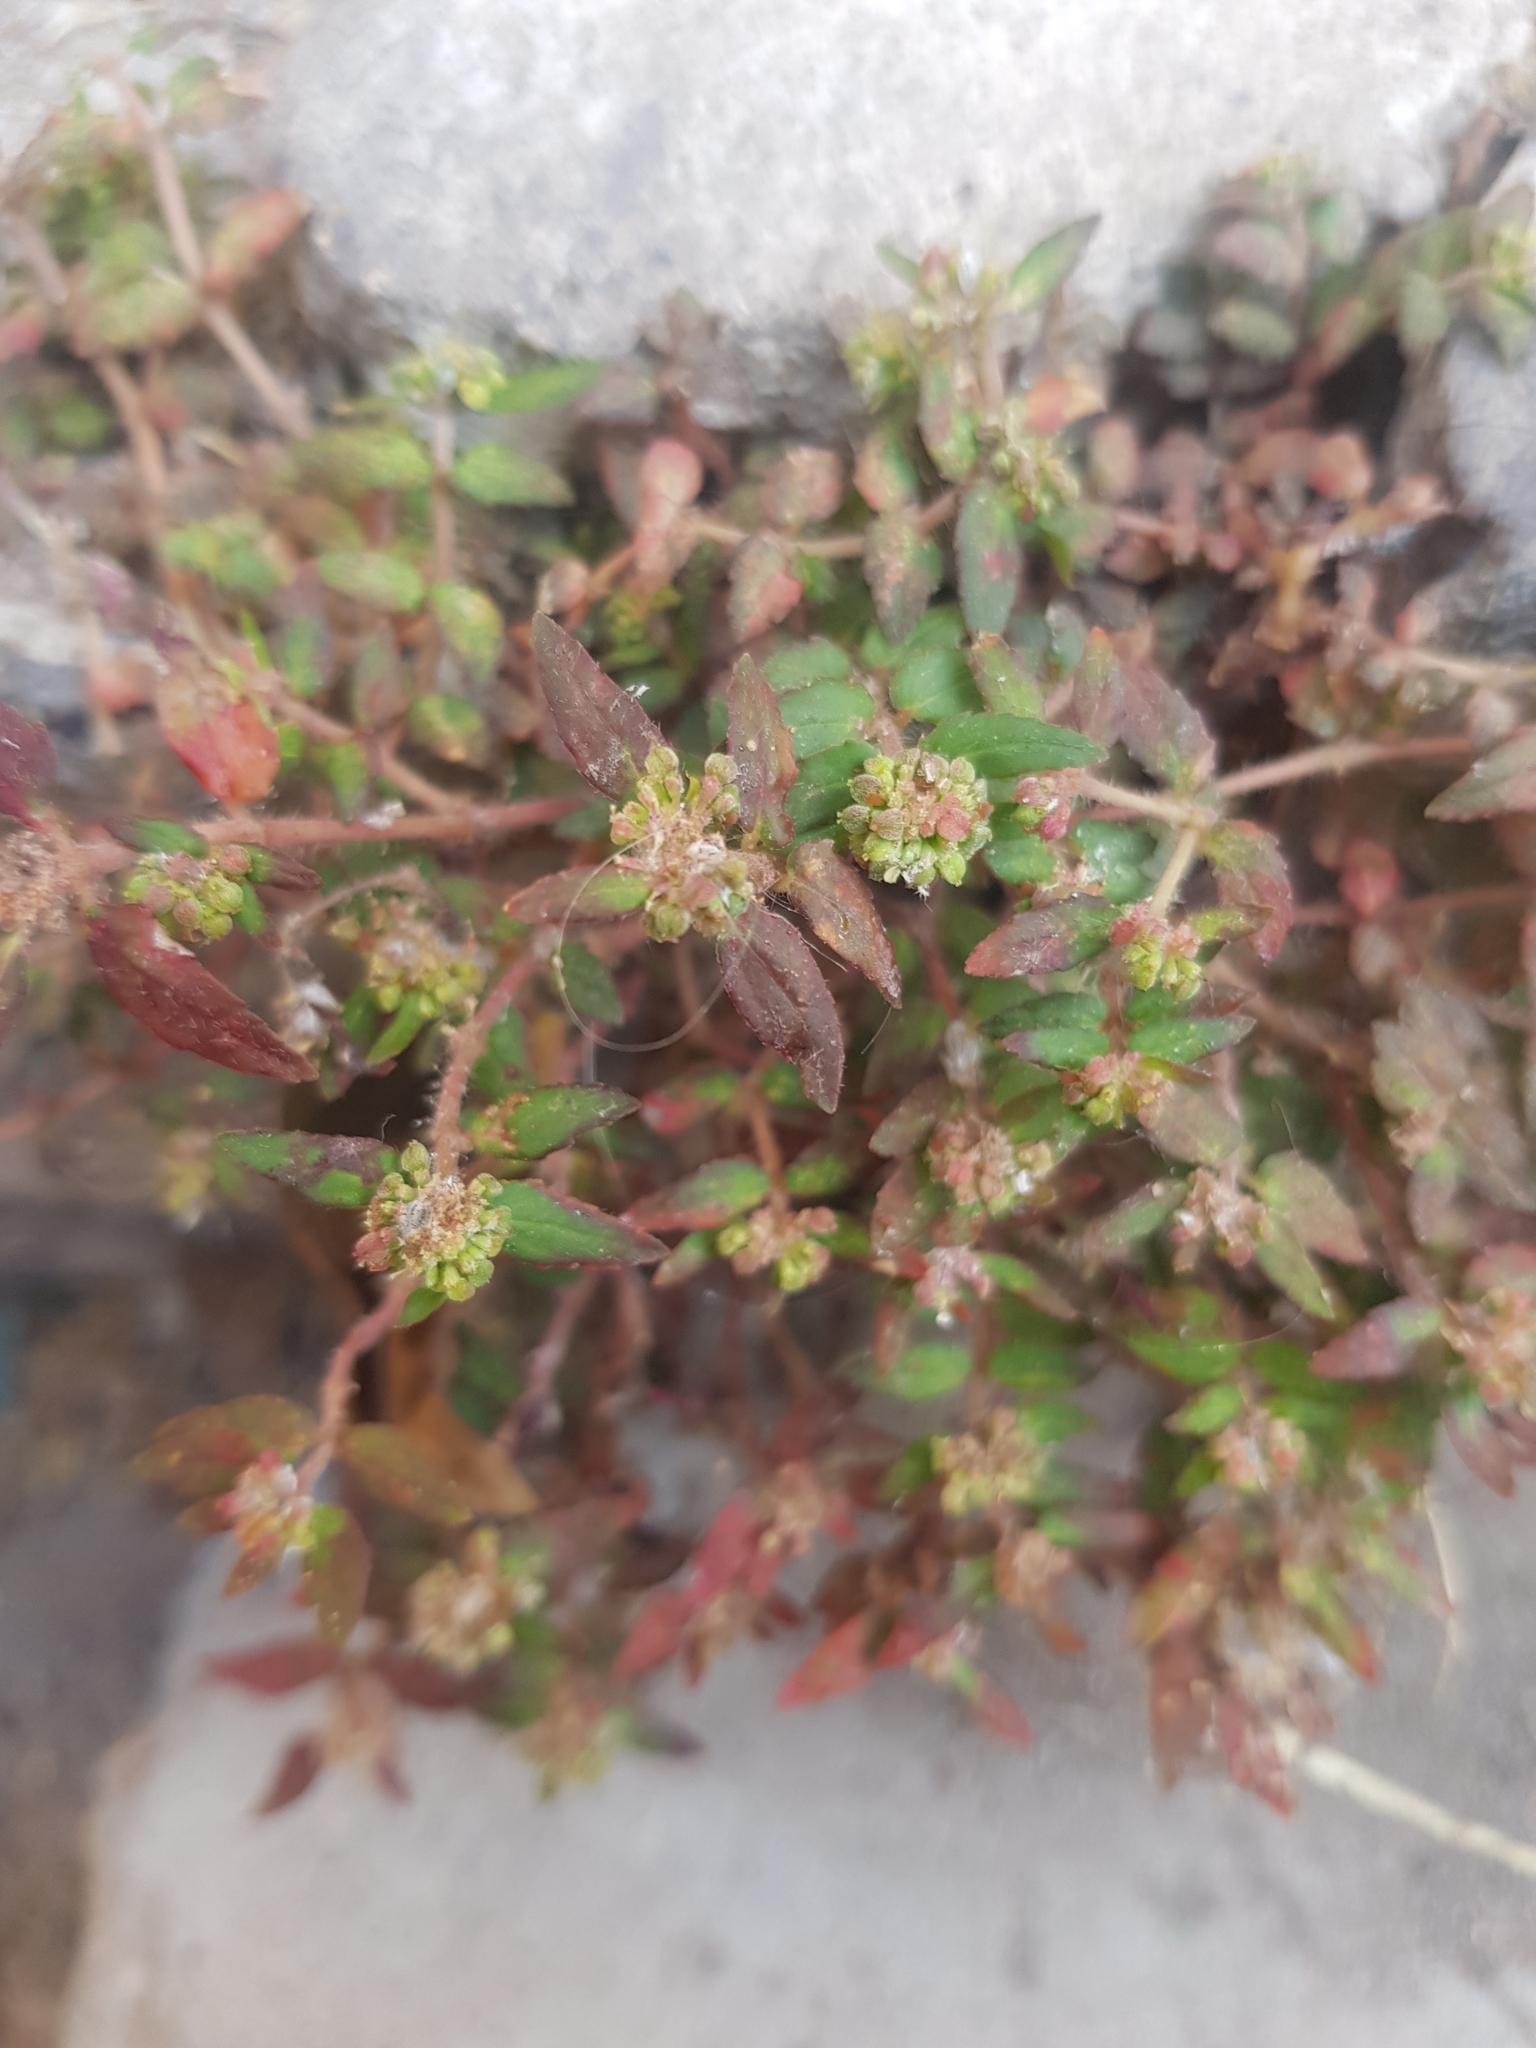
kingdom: Plantae
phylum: Tracheophyta
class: Magnoliopsida
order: Malpighiales
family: Euphorbiaceae
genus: Euphorbia
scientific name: Euphorbia ophthalmica
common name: Florida hammock sandmat
